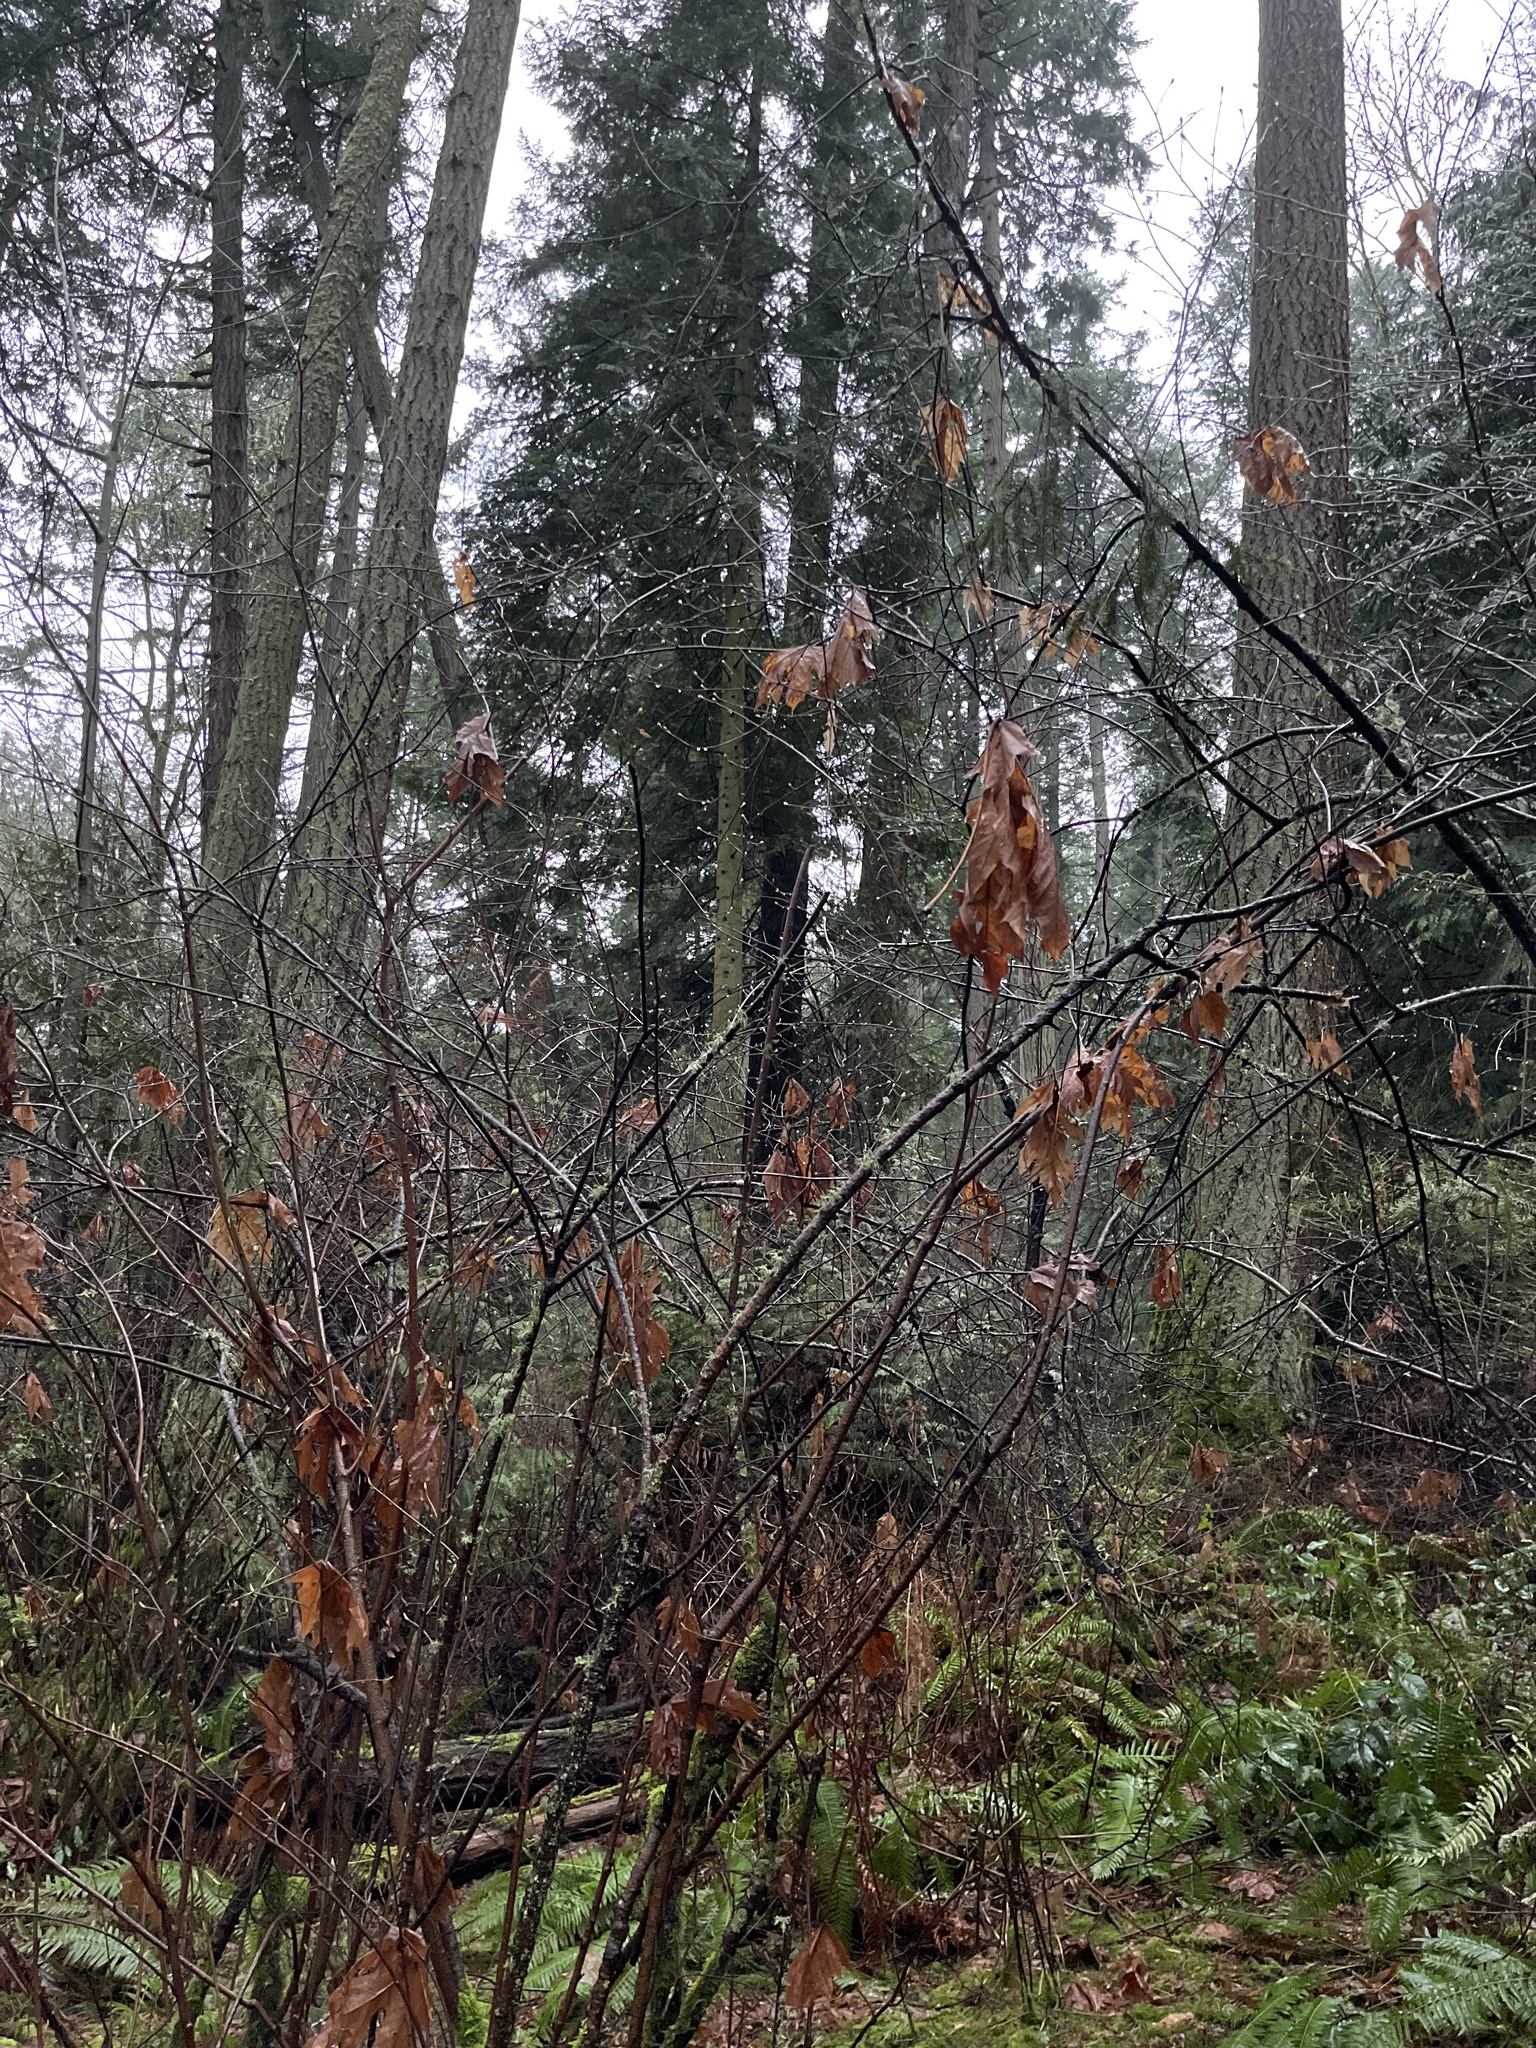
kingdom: Plantae
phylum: Tracheophyta
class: Magnoliopsida
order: Rosales
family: Rosaceae
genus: Holodiscus
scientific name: Holodiscus discolor
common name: Oceanspray
